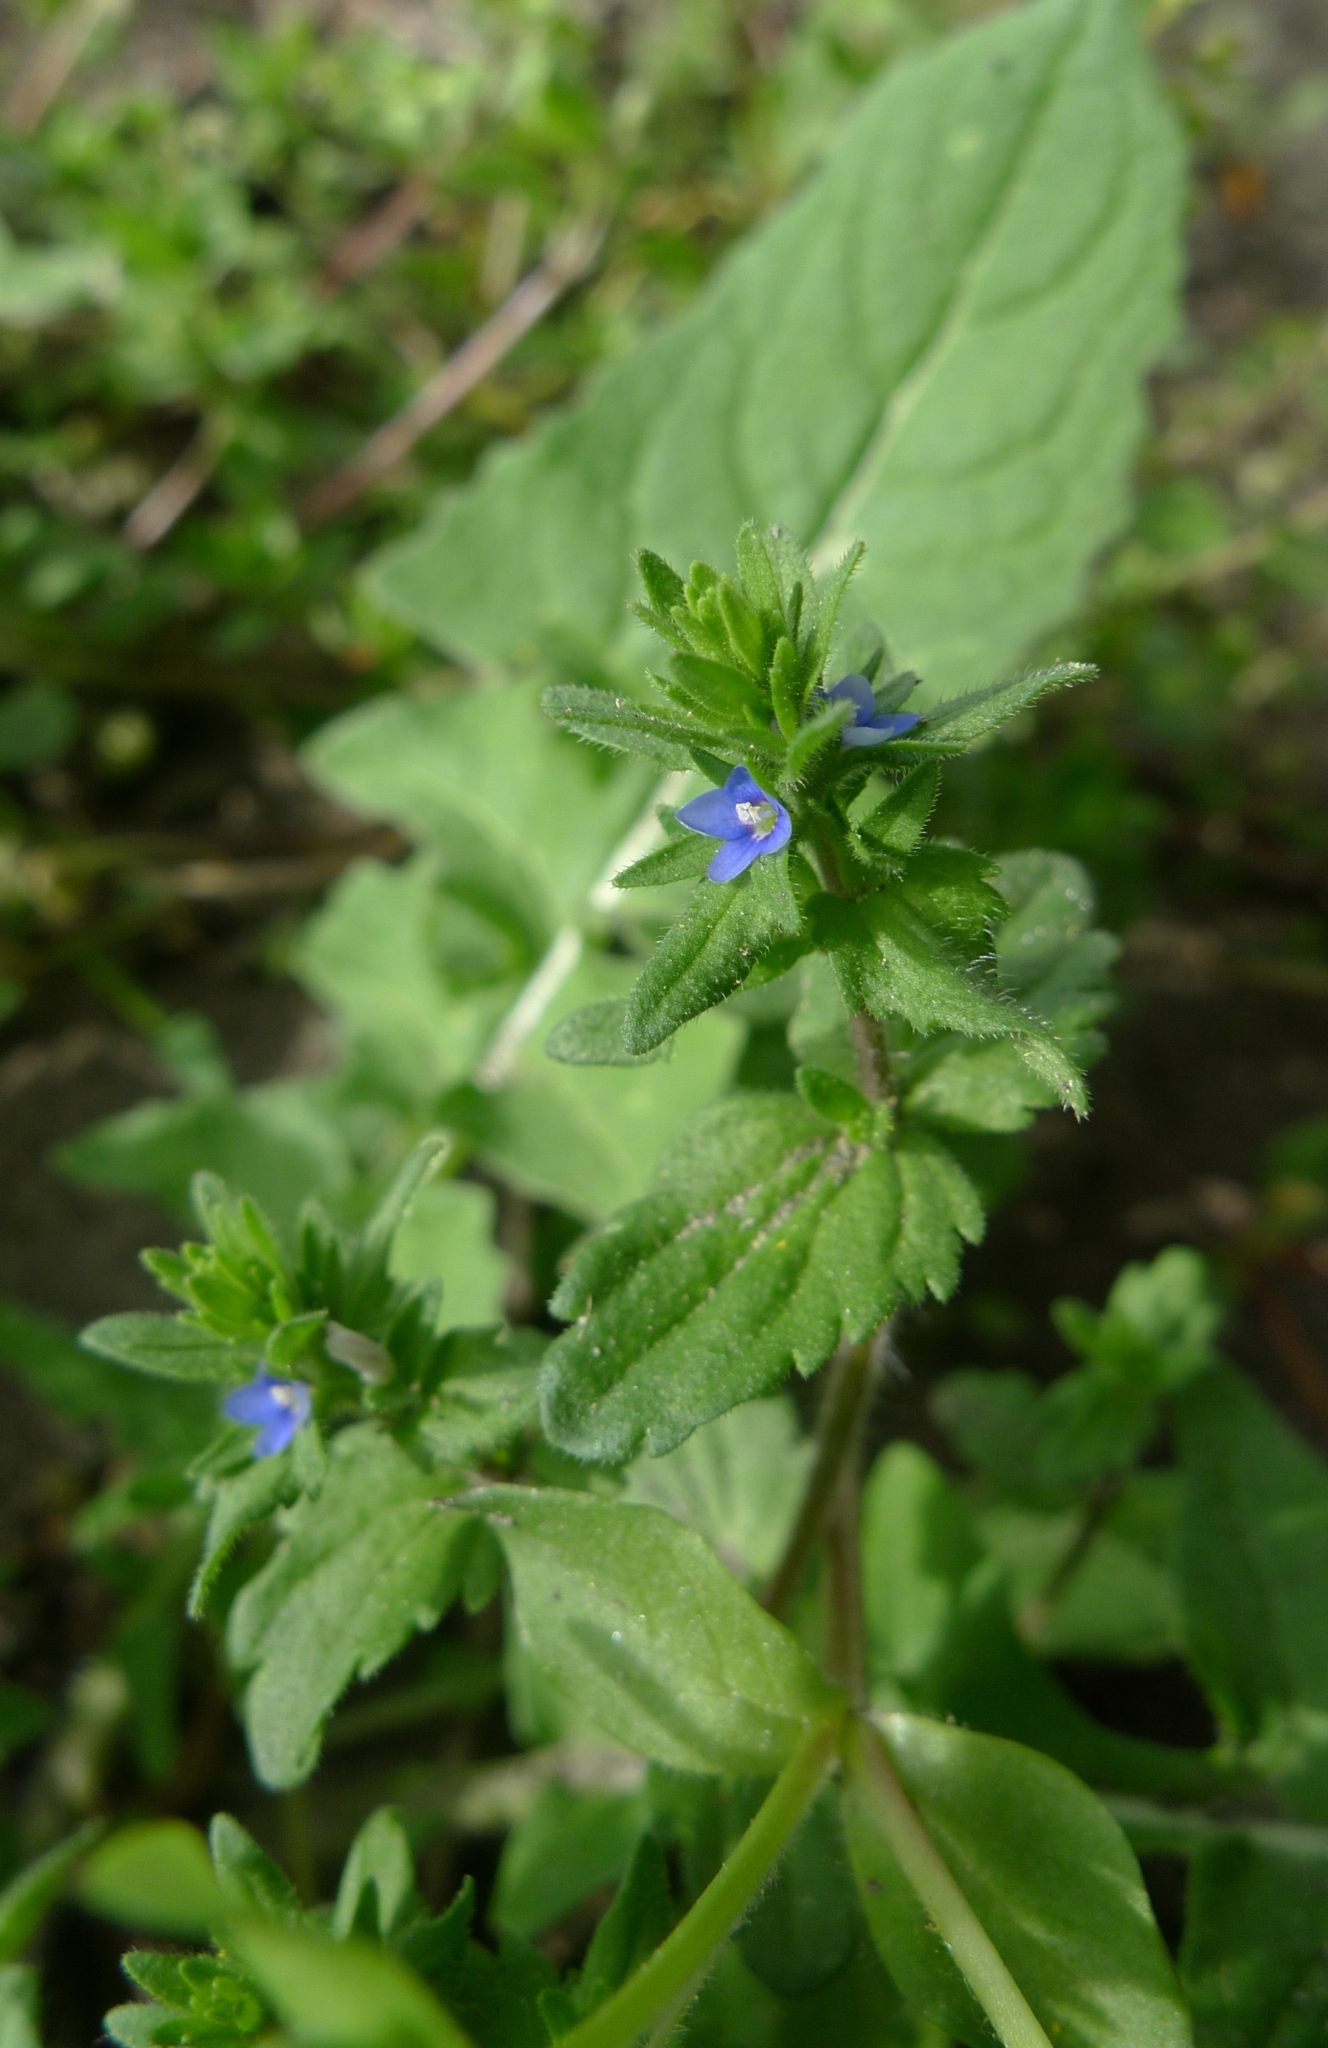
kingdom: Plantae
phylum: Tracheophyta
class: Magnoliopsida
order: Lamiales
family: Plantaginaceae
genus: Veronica
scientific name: Veronica arvensis
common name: Corn speedwell
